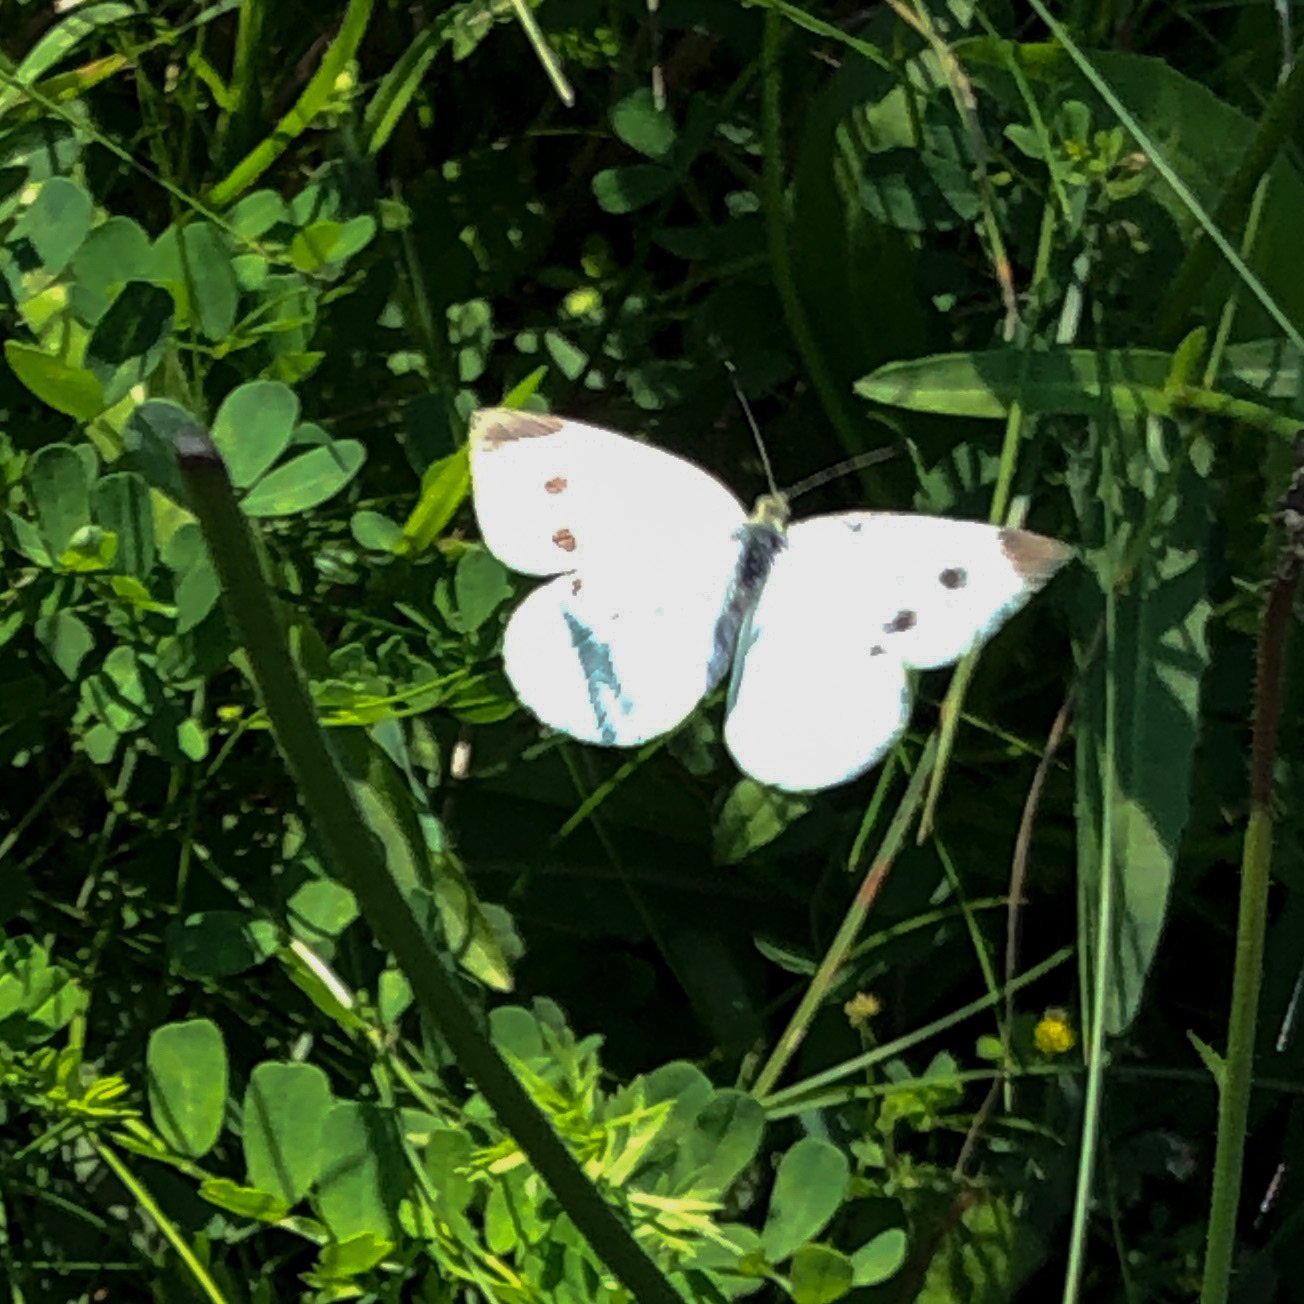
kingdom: Animalia
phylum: Arthropoda
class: Insecta
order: Lepidoptera
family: Pieridae
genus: Pieris
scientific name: Pieris rapae
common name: Small white
